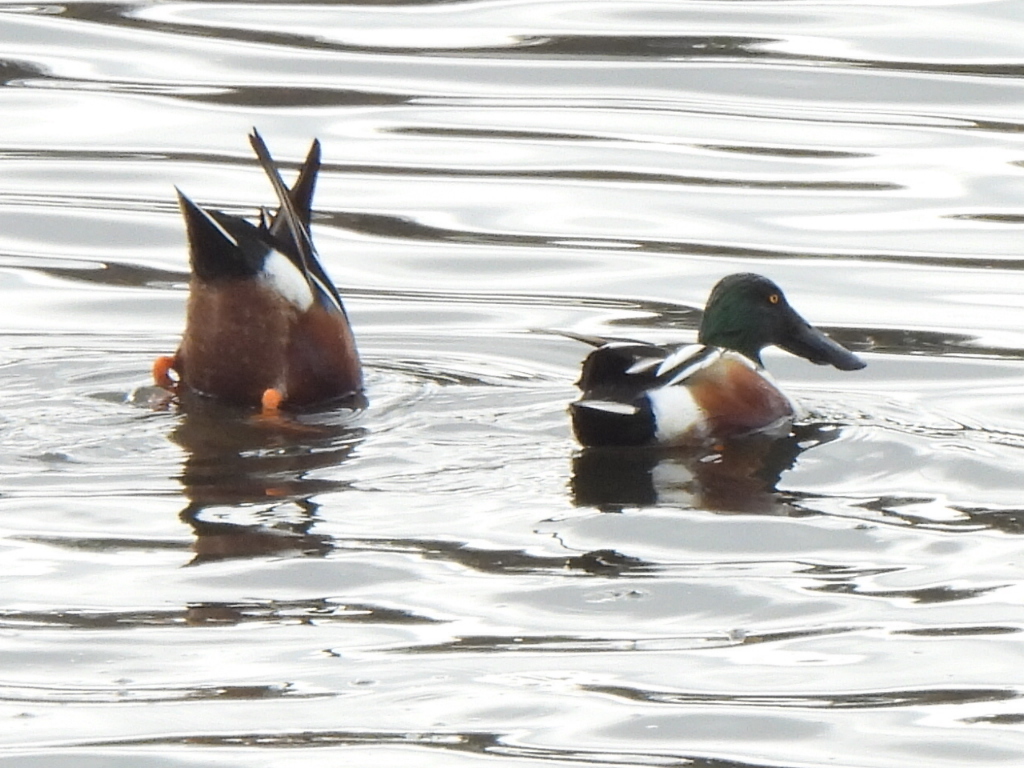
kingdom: Animalia
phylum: Chordata
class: Aves
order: Anseriformes
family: Anatidae
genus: Spatula
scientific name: Spatula clypeata
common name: Northern shoveler
